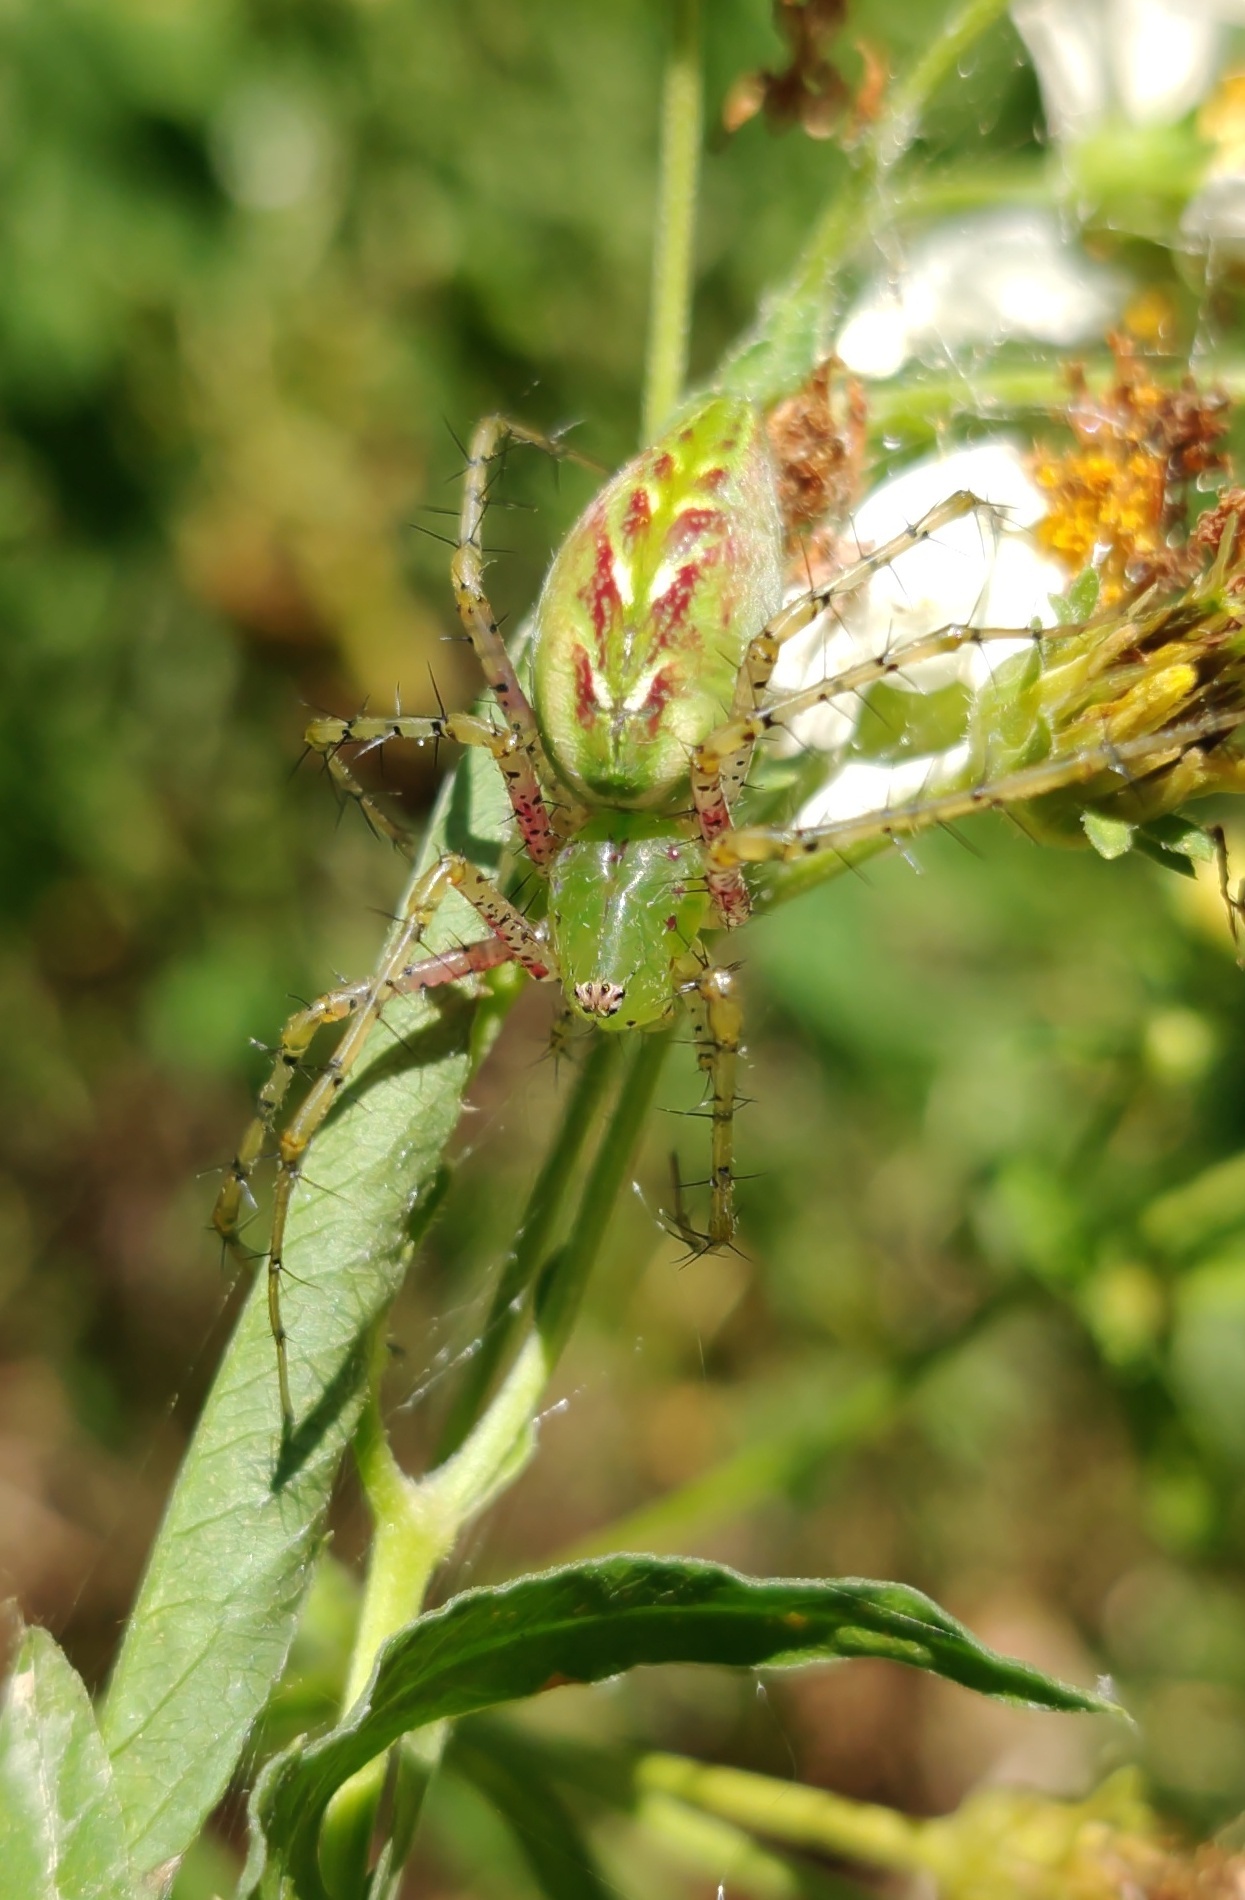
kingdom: Animalia
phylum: Arthropoda
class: Arachnida
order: Araneae
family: Oxyopidae
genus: Peucetia
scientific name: Peucetia viridans
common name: Lynx spiders
